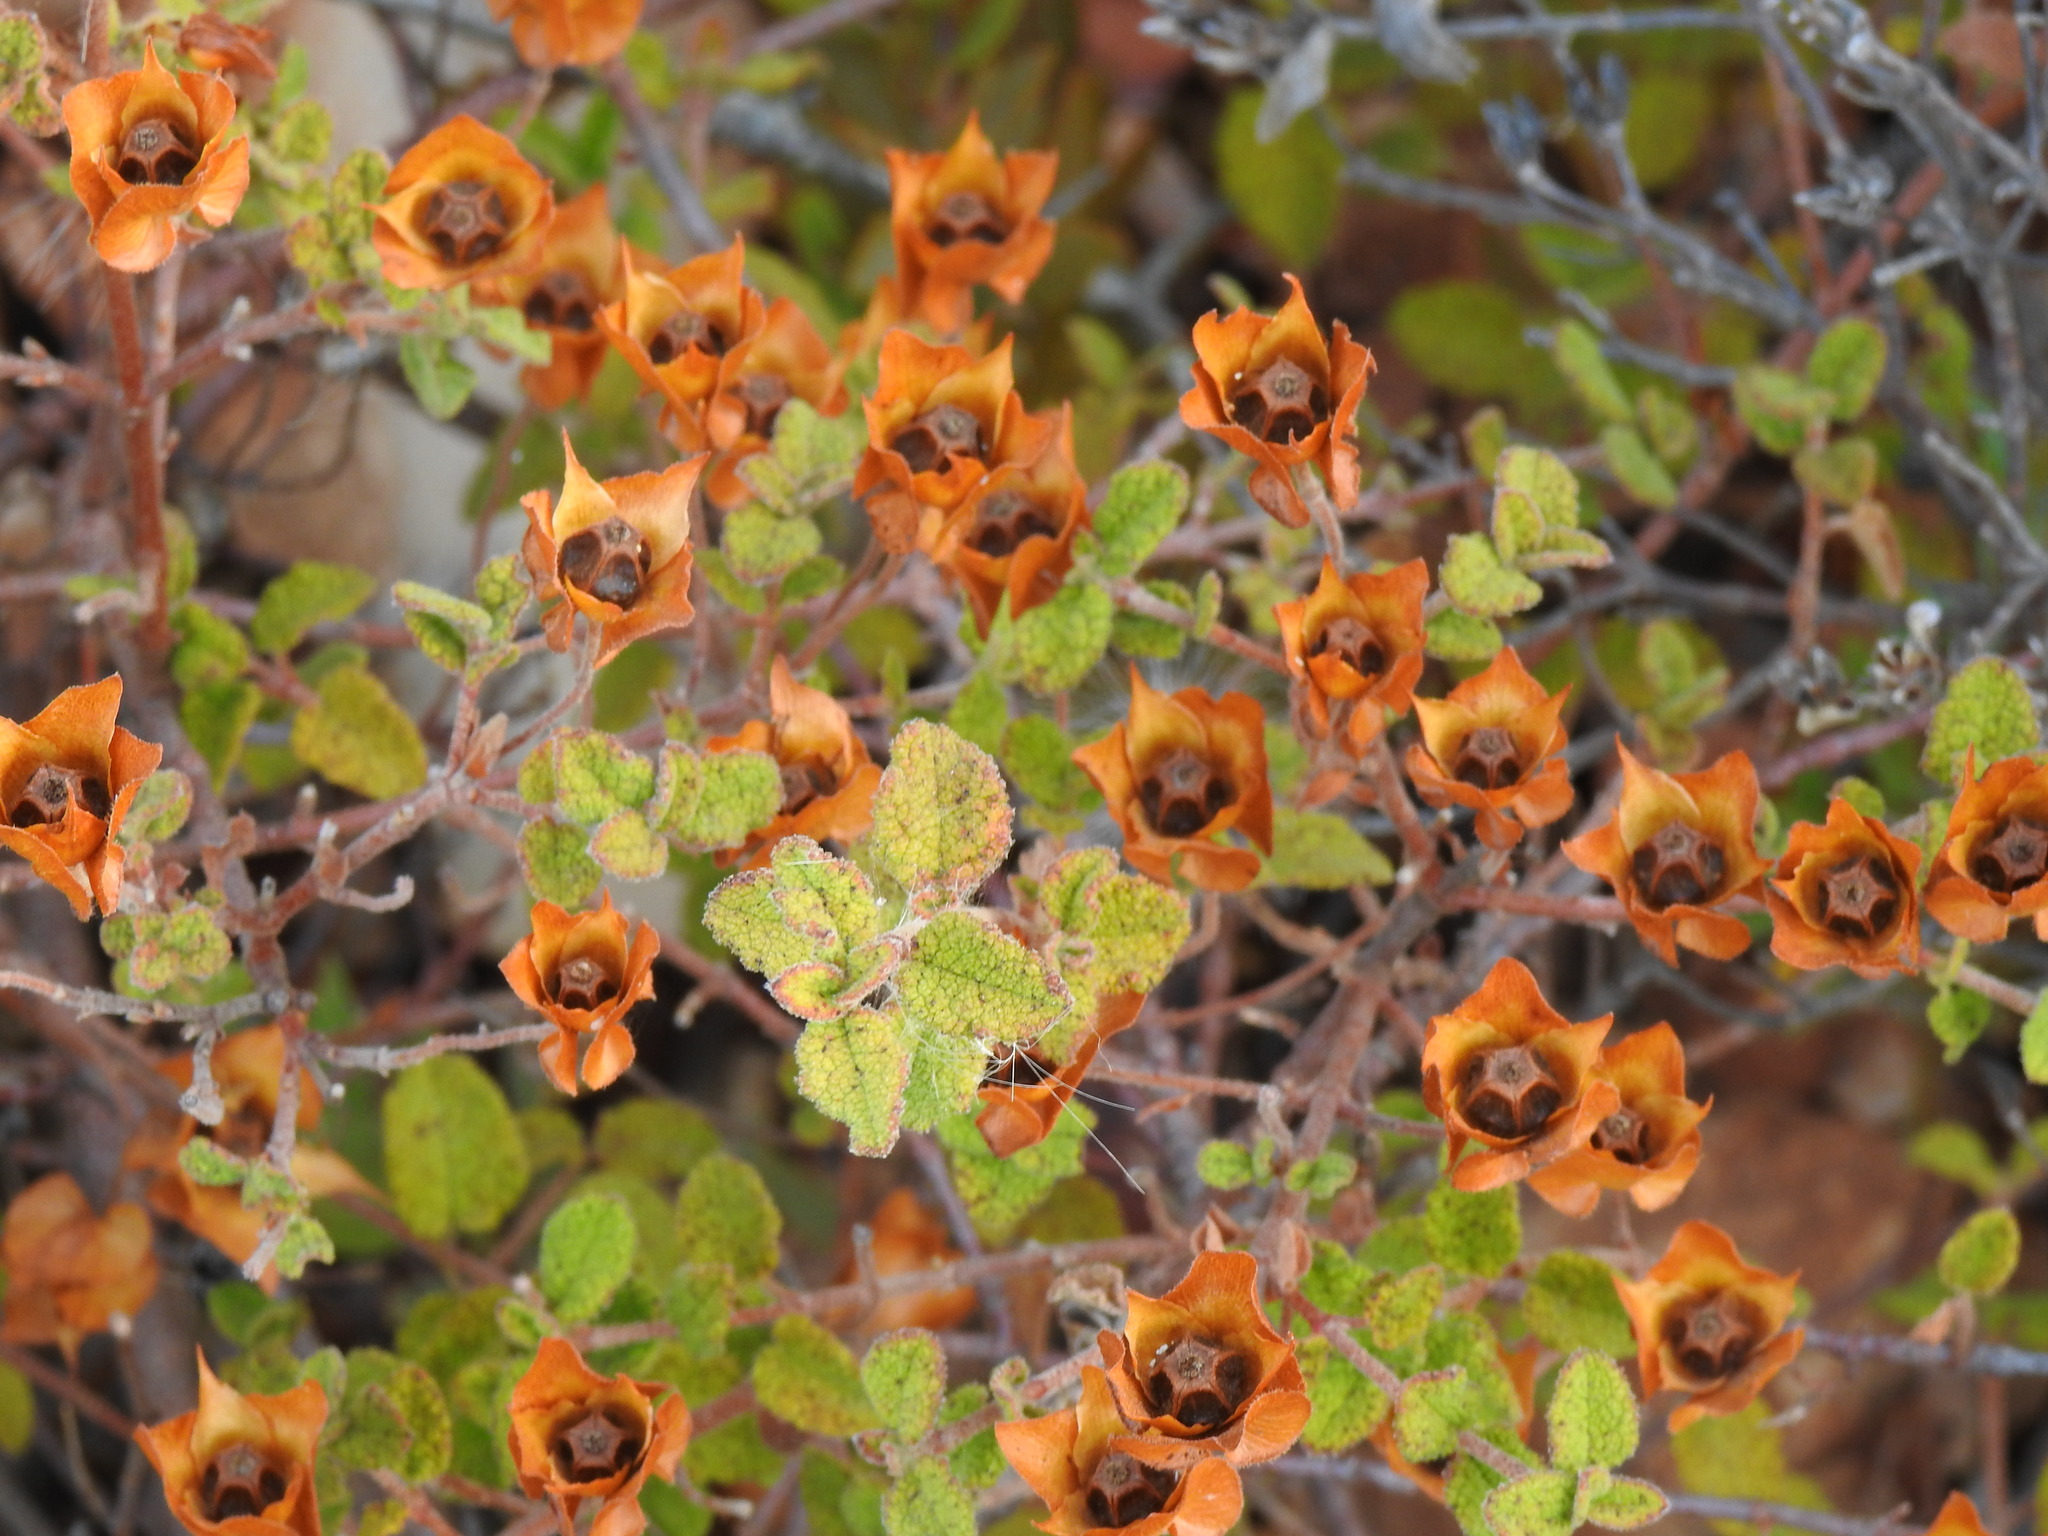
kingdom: Plantae
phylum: Tracheophyta
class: Magnoliopsida
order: Malvales
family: Cistaceae
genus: Cistus
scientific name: Cistus salviifolius
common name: Salvia cistus
